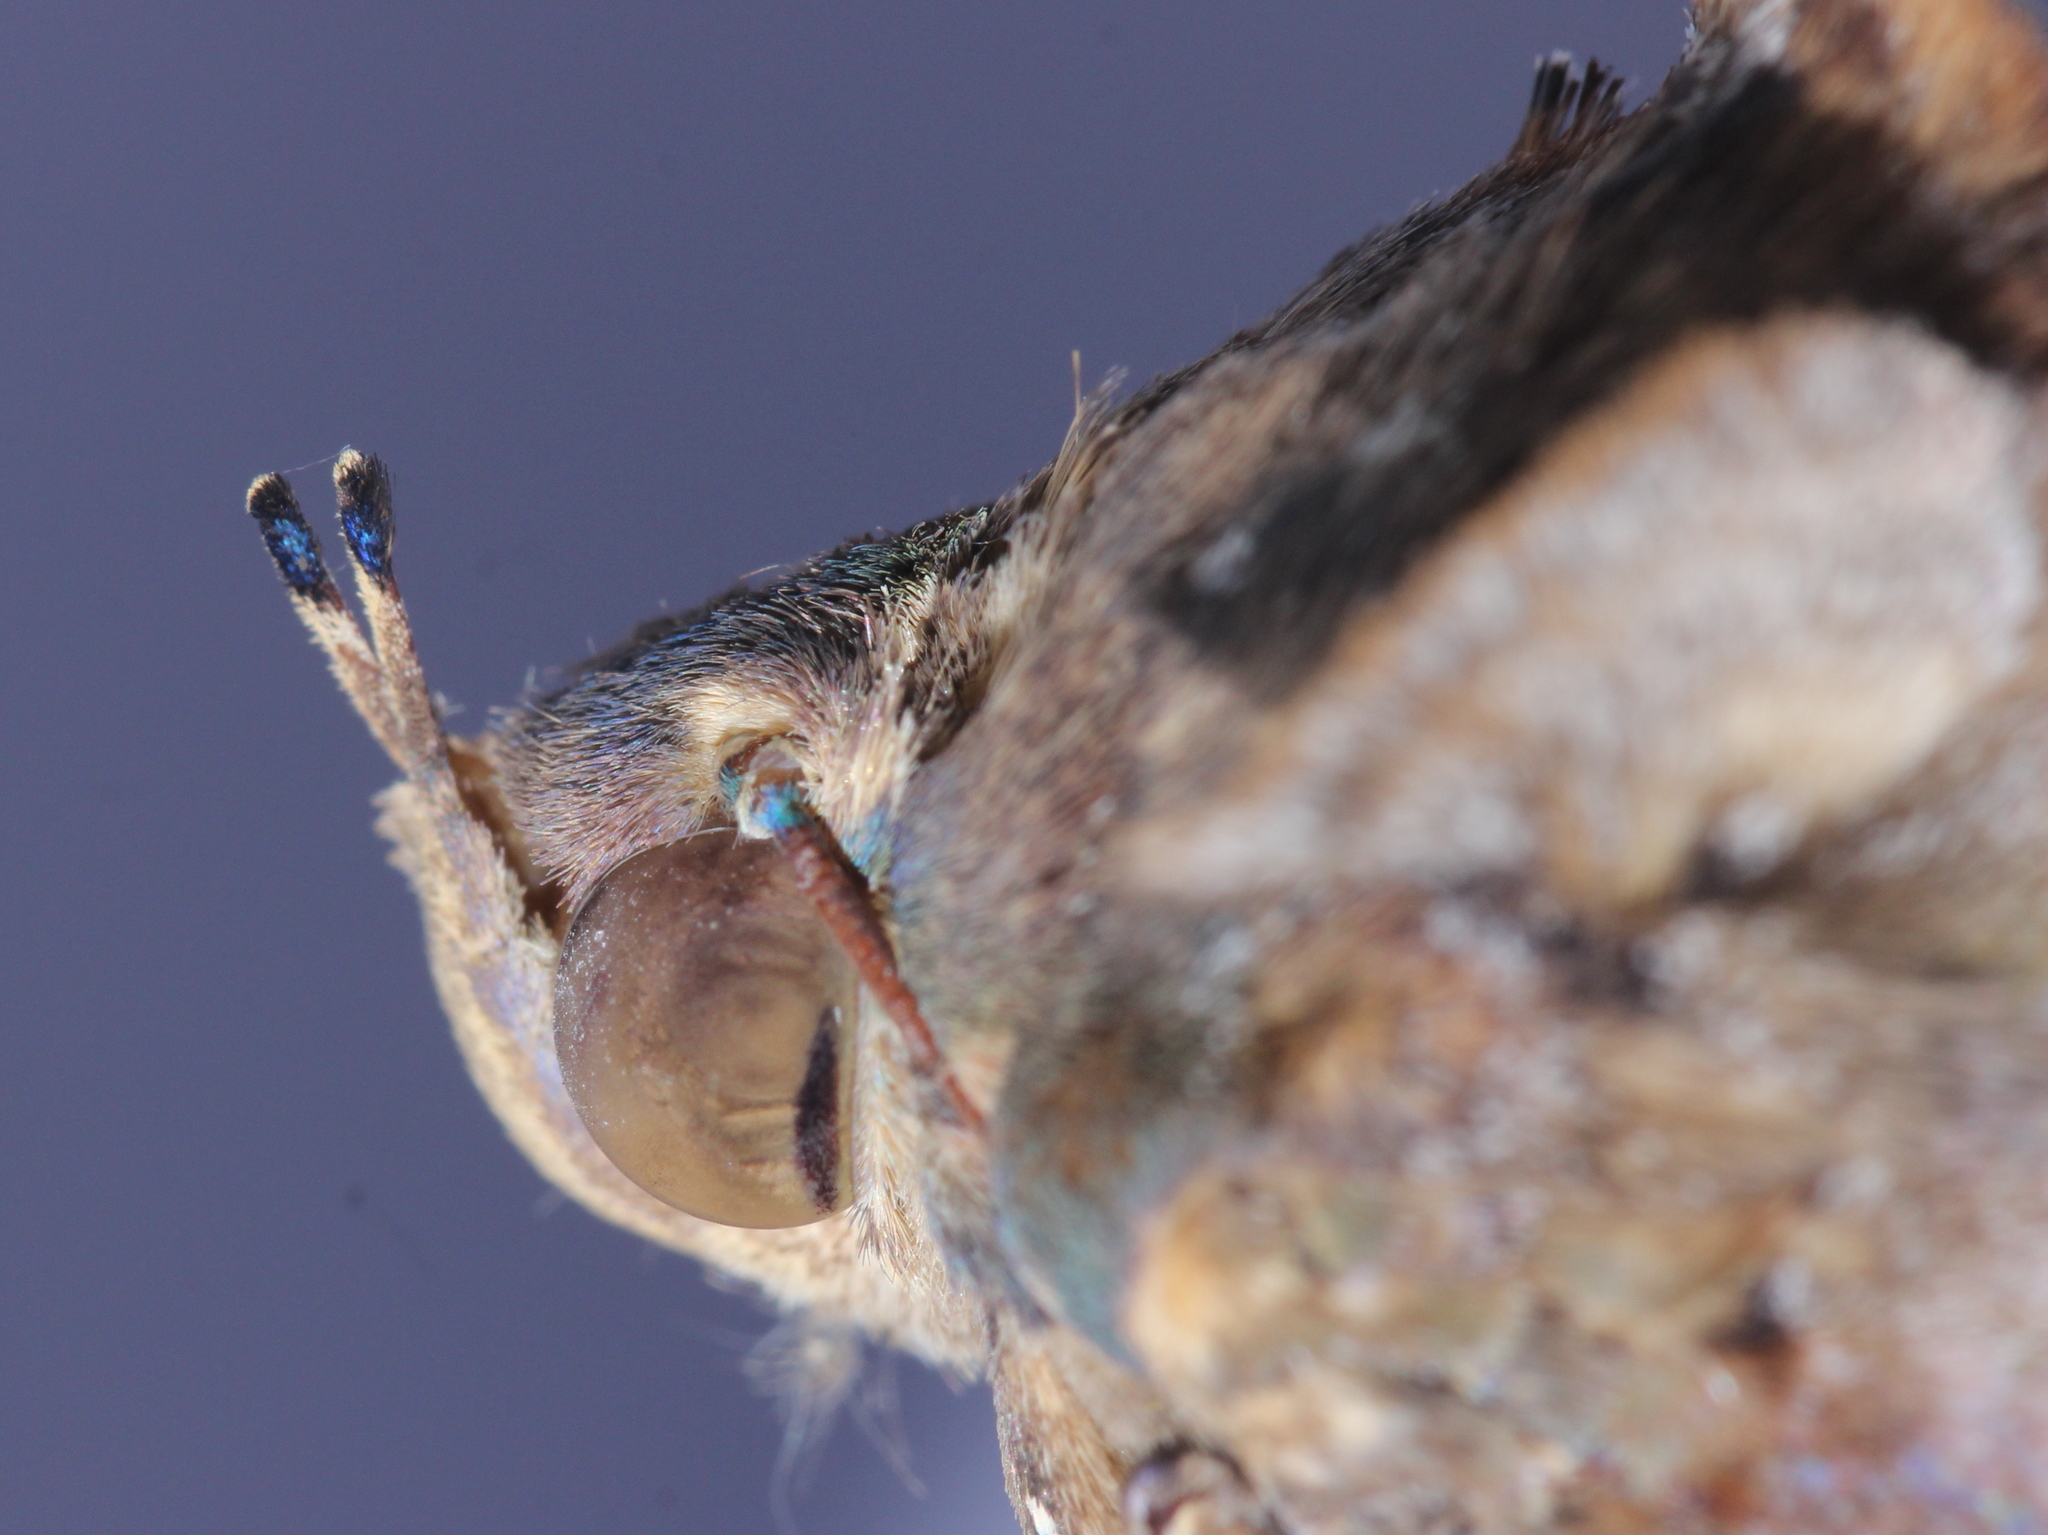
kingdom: Animalia
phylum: Arthropoda
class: Insecta
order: Lepidoptera
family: Erebidae
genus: Eudocima
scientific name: Eudocima phalonia
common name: Wasp
